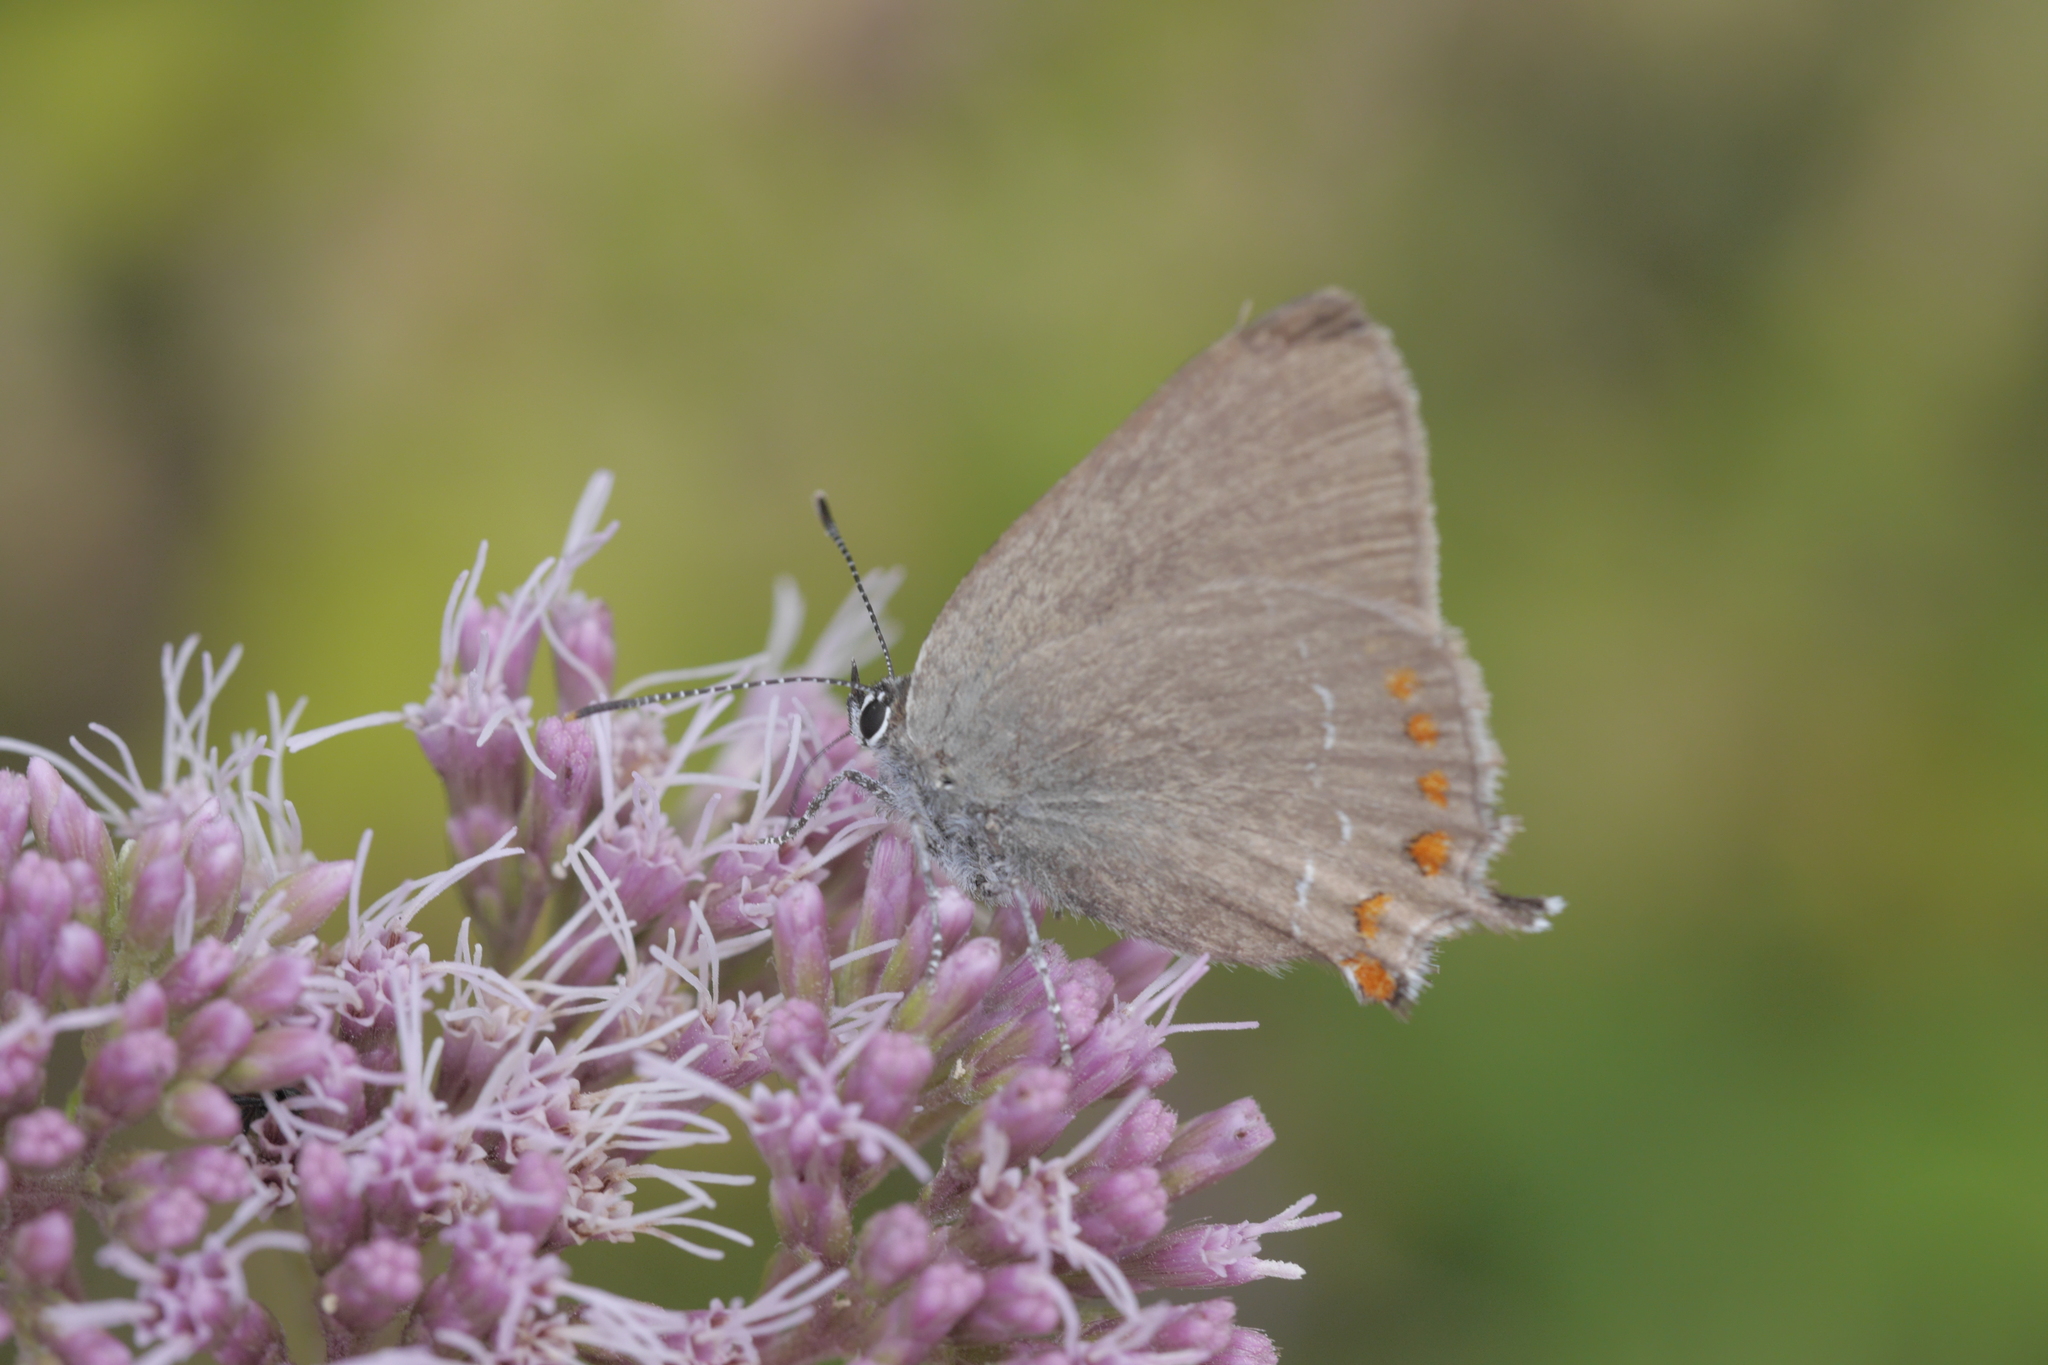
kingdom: Animalia
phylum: Arthropoda
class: Insecta
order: Lepidoptera
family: Lycaenidae
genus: Fixsenia
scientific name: Fixsenia esculi
